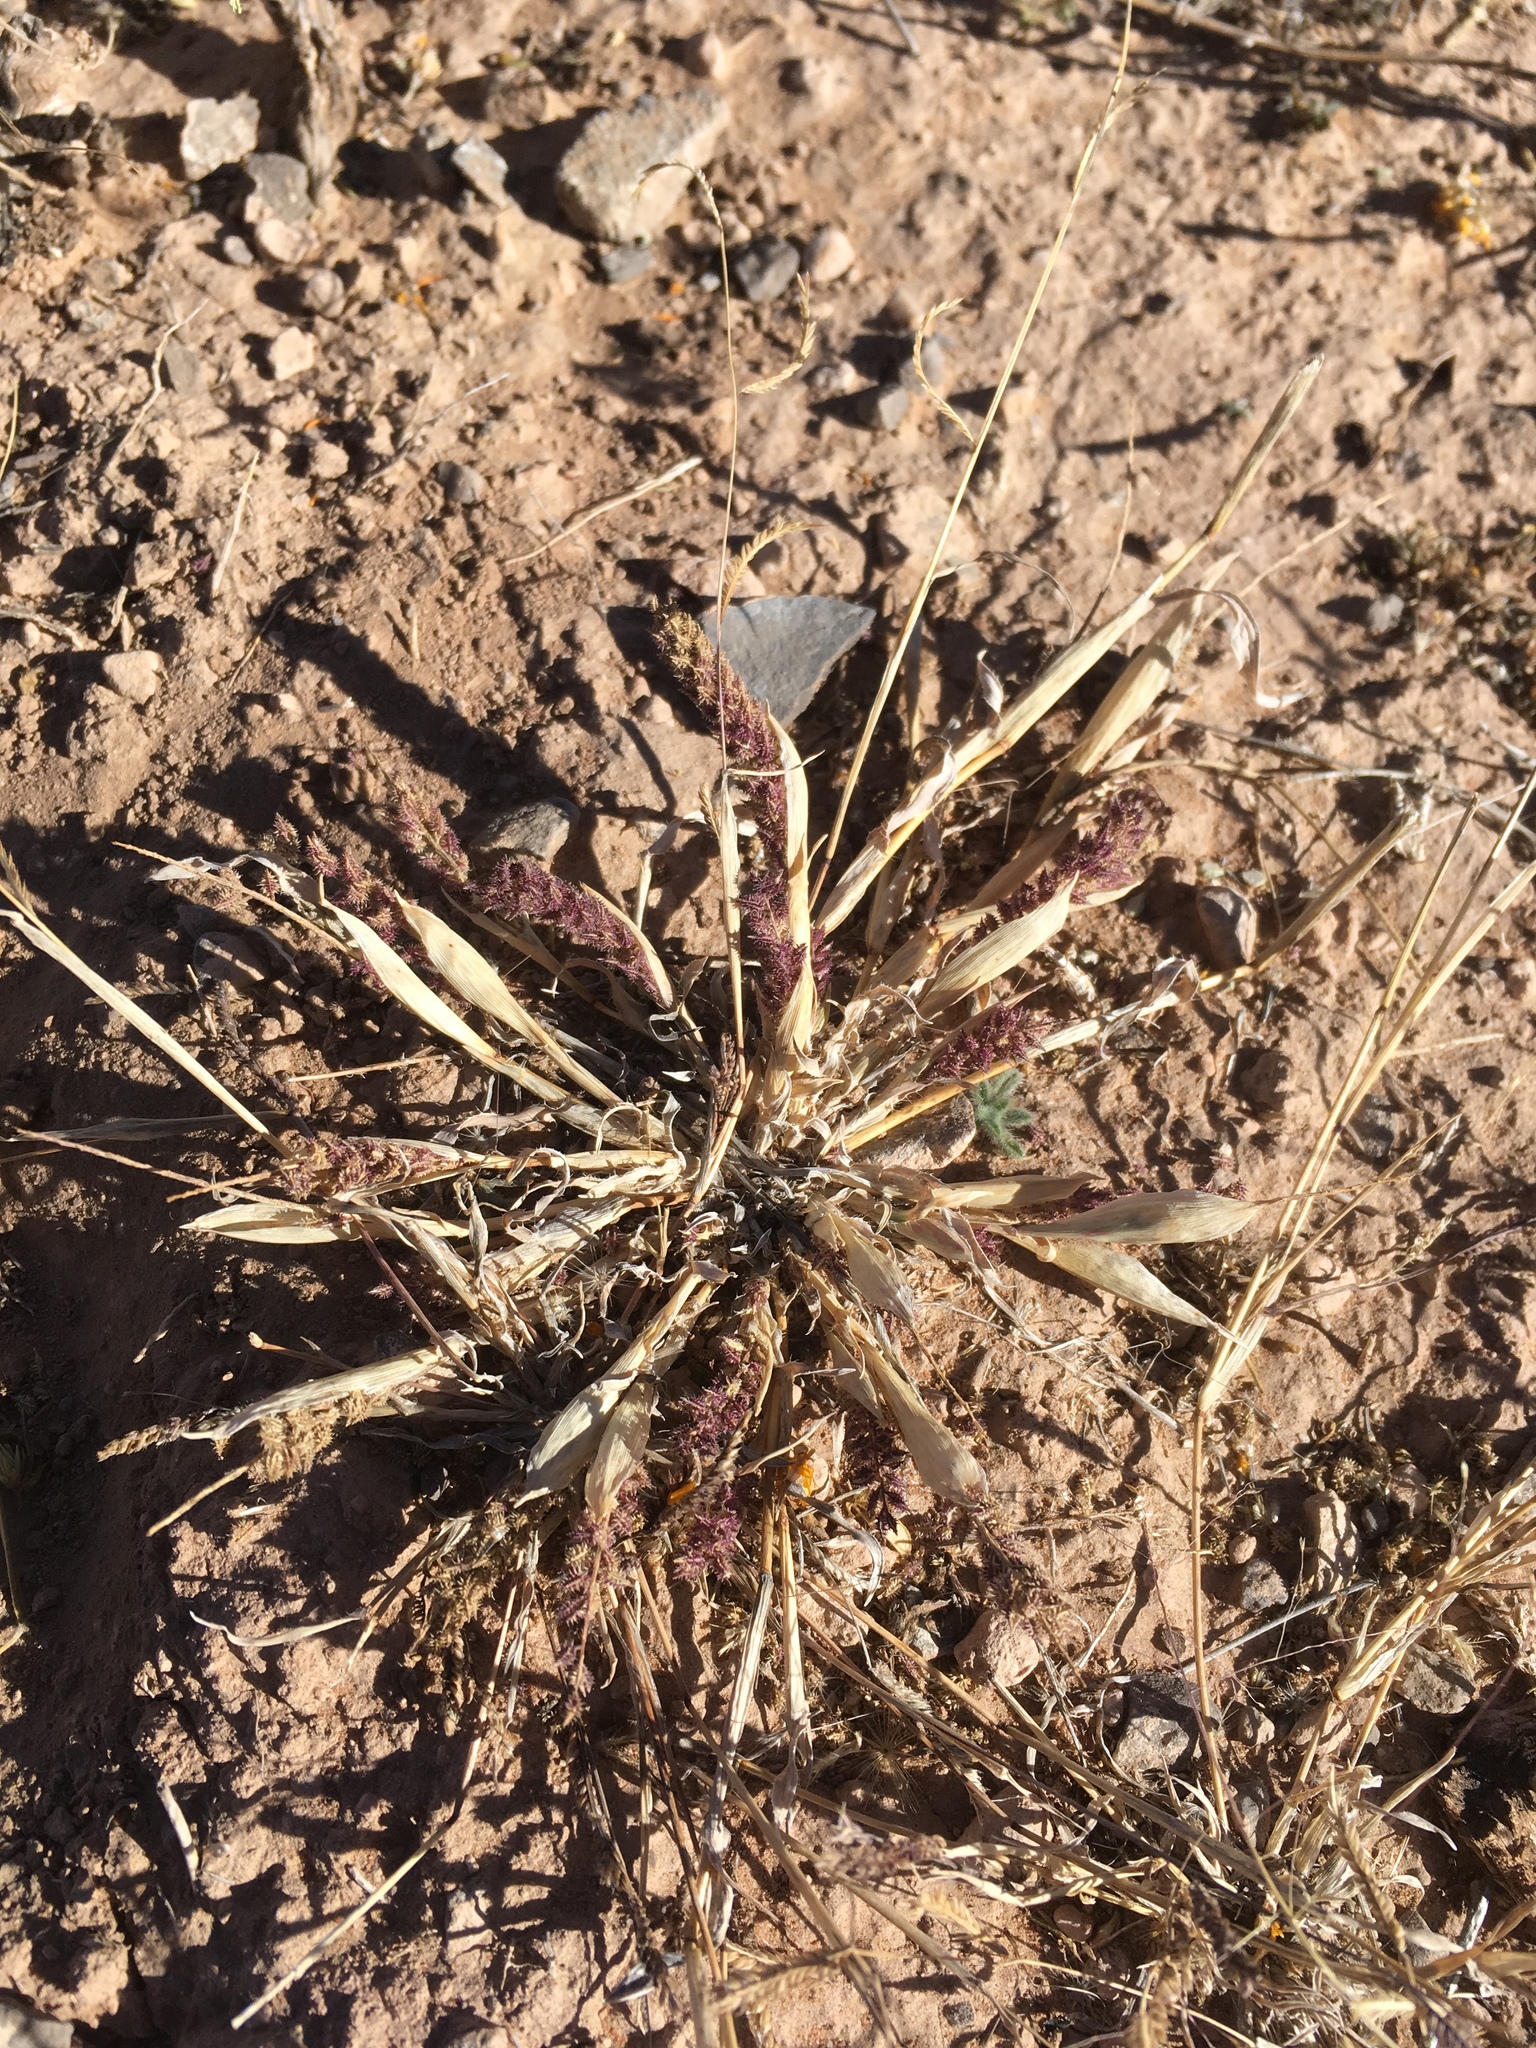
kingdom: Plantae
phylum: Tracheophyta
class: Liliopsida
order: Poales
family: Poaceae
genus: Tragus
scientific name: Tragus berteronianus
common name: African bur-grass
